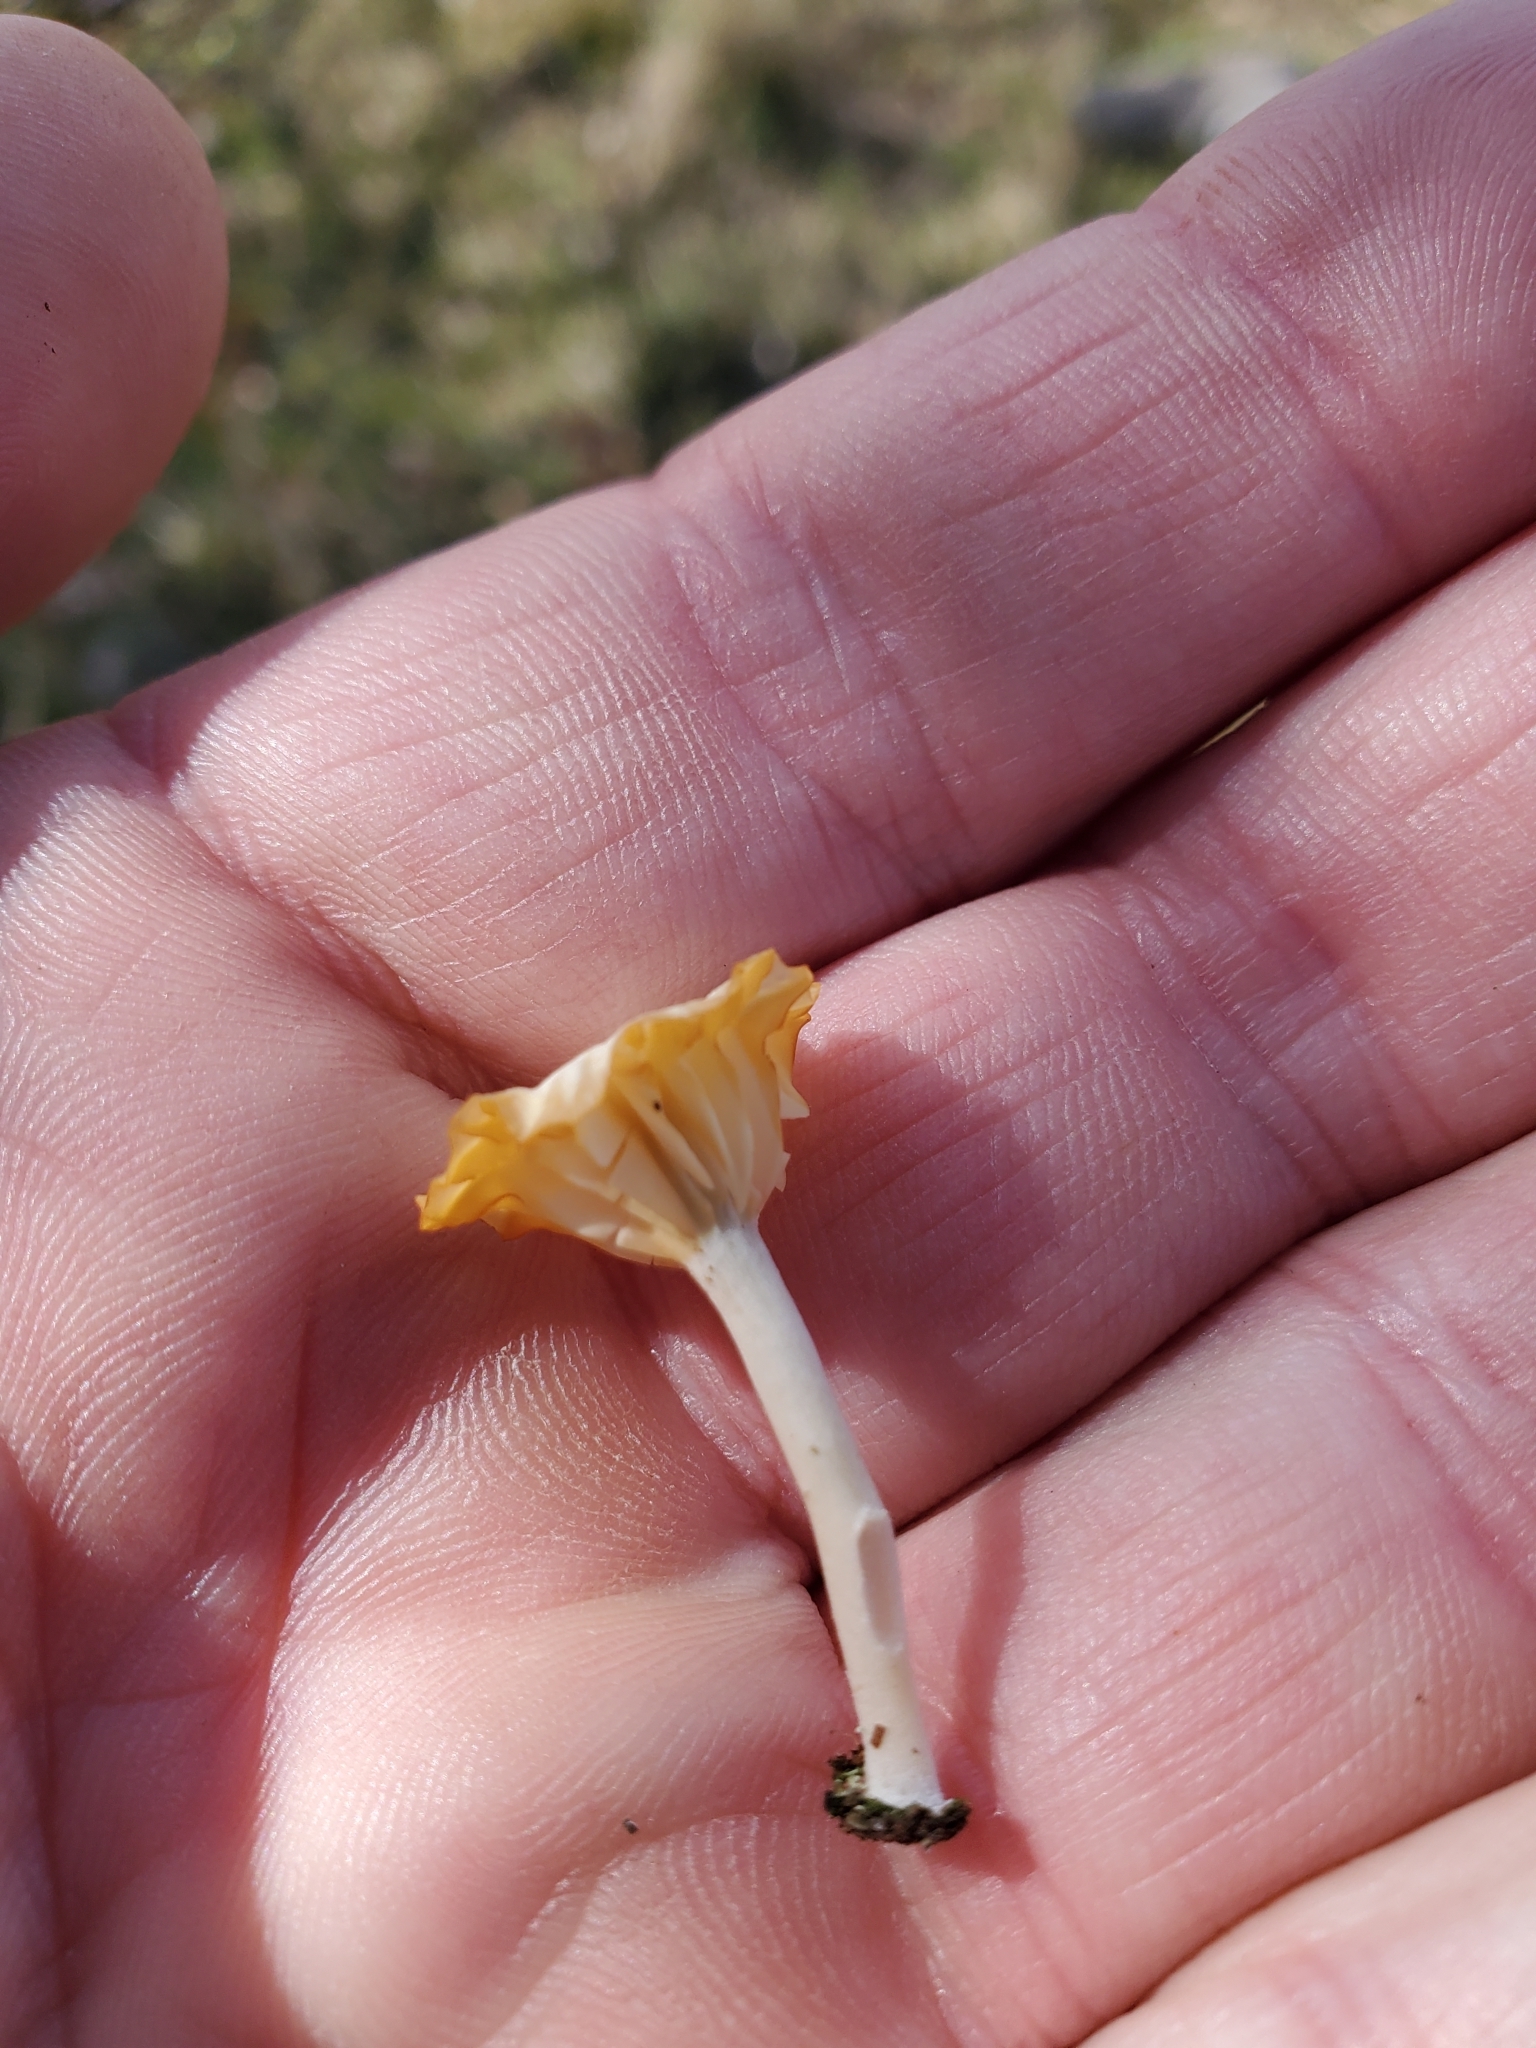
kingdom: Fungi
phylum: Basidiomycota
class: Agaricomycetes
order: Agaricales
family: Hygrophoraceae
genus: Lichenomphalia
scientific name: Lichenomphalia
